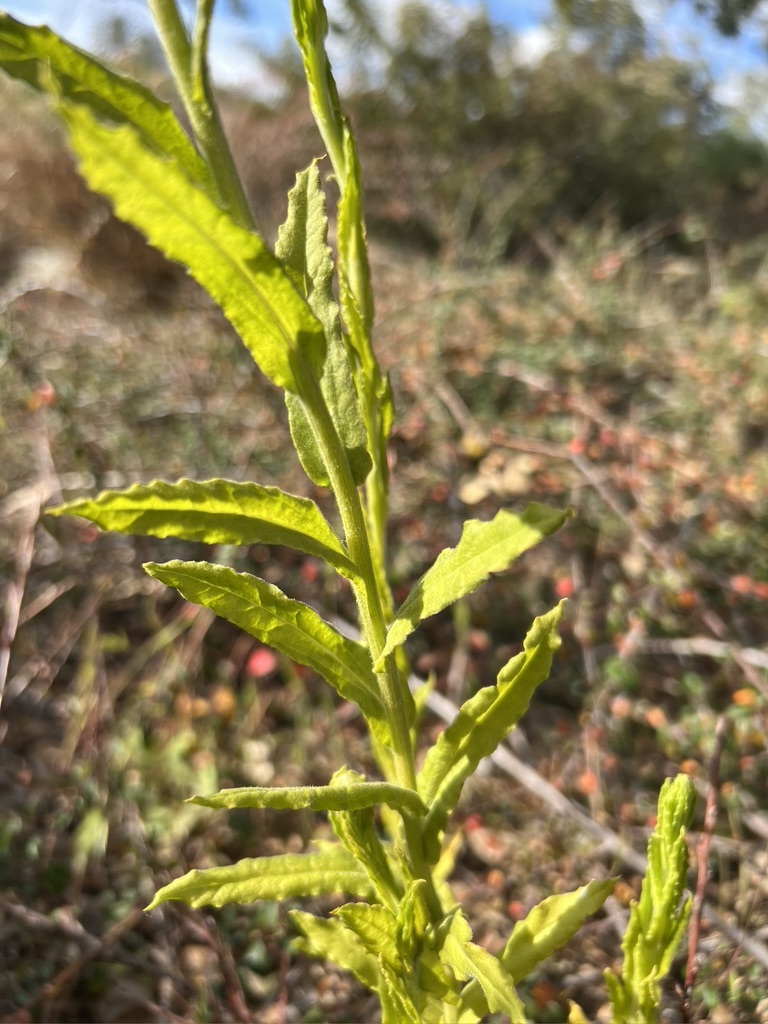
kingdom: Plantae
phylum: Tracheophyta
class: Magnoliopsida
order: Asterales
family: Asteraceae
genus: Pseudognaphalium
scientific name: Pseudognaphalium californicum
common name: California rabbit-tobacco
